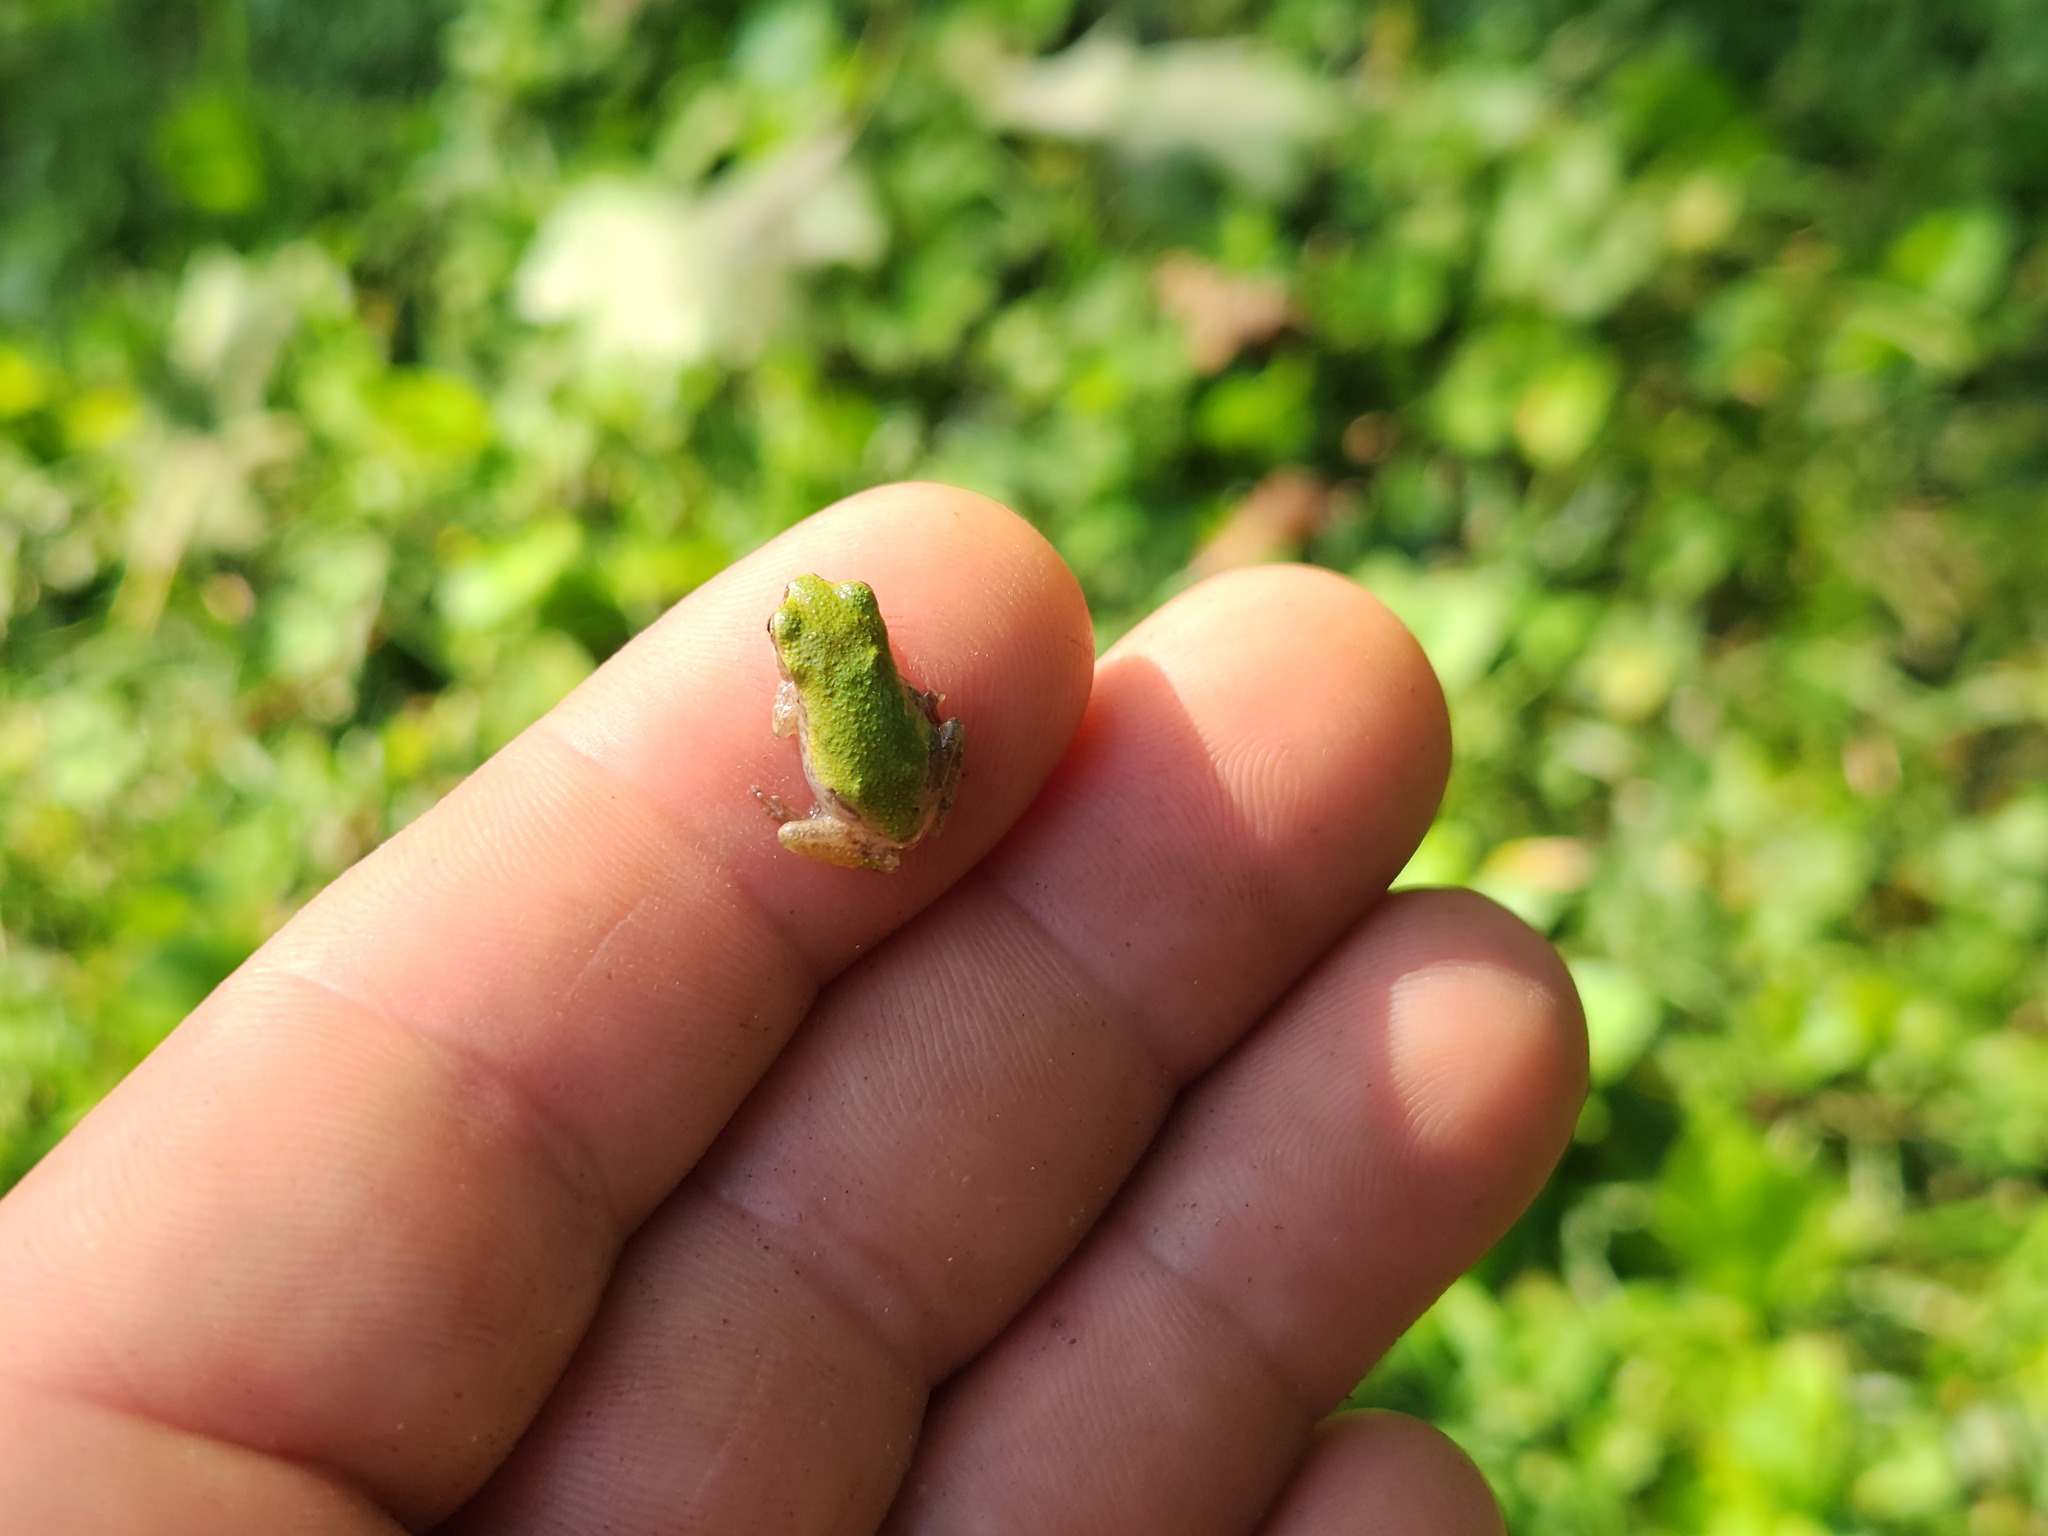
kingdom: Animalia
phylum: Chordata
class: Amphibia
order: Anura
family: Hylidae
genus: Dryophytes
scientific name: Dryophytes chrysoscelis
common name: Cope's gray treefrog
